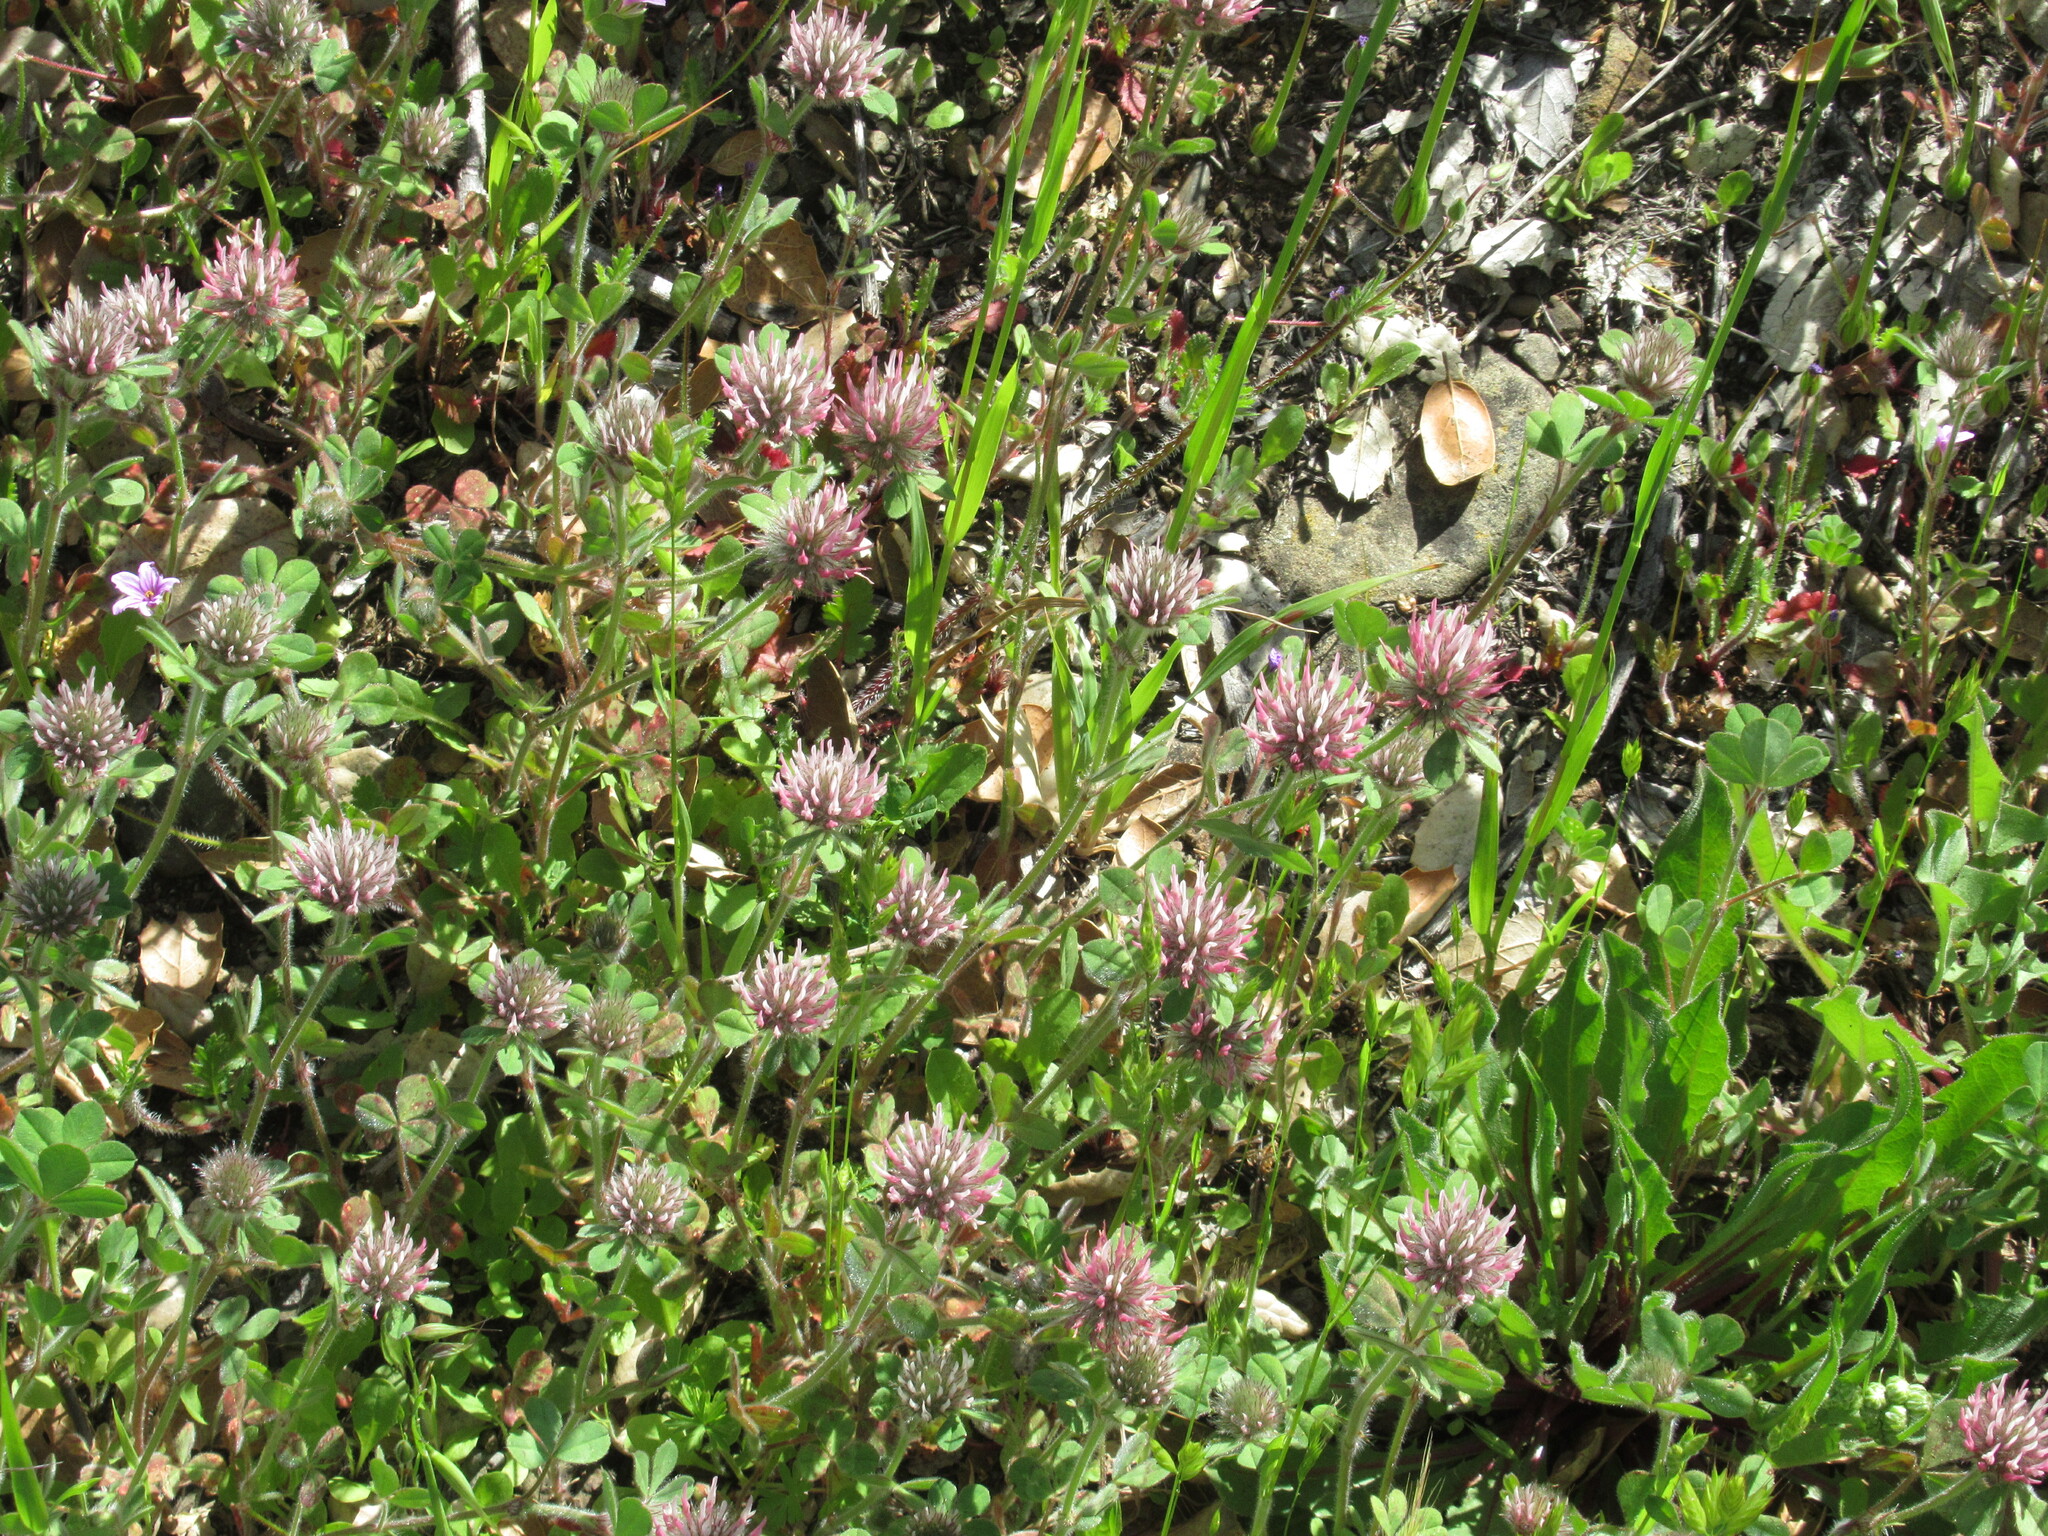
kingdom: Plantae
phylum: Tracheophyta
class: Magnoliopsida
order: Fabales
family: Fabaceae
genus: Trifolium
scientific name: Trifolium hirtum
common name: Rose clover
